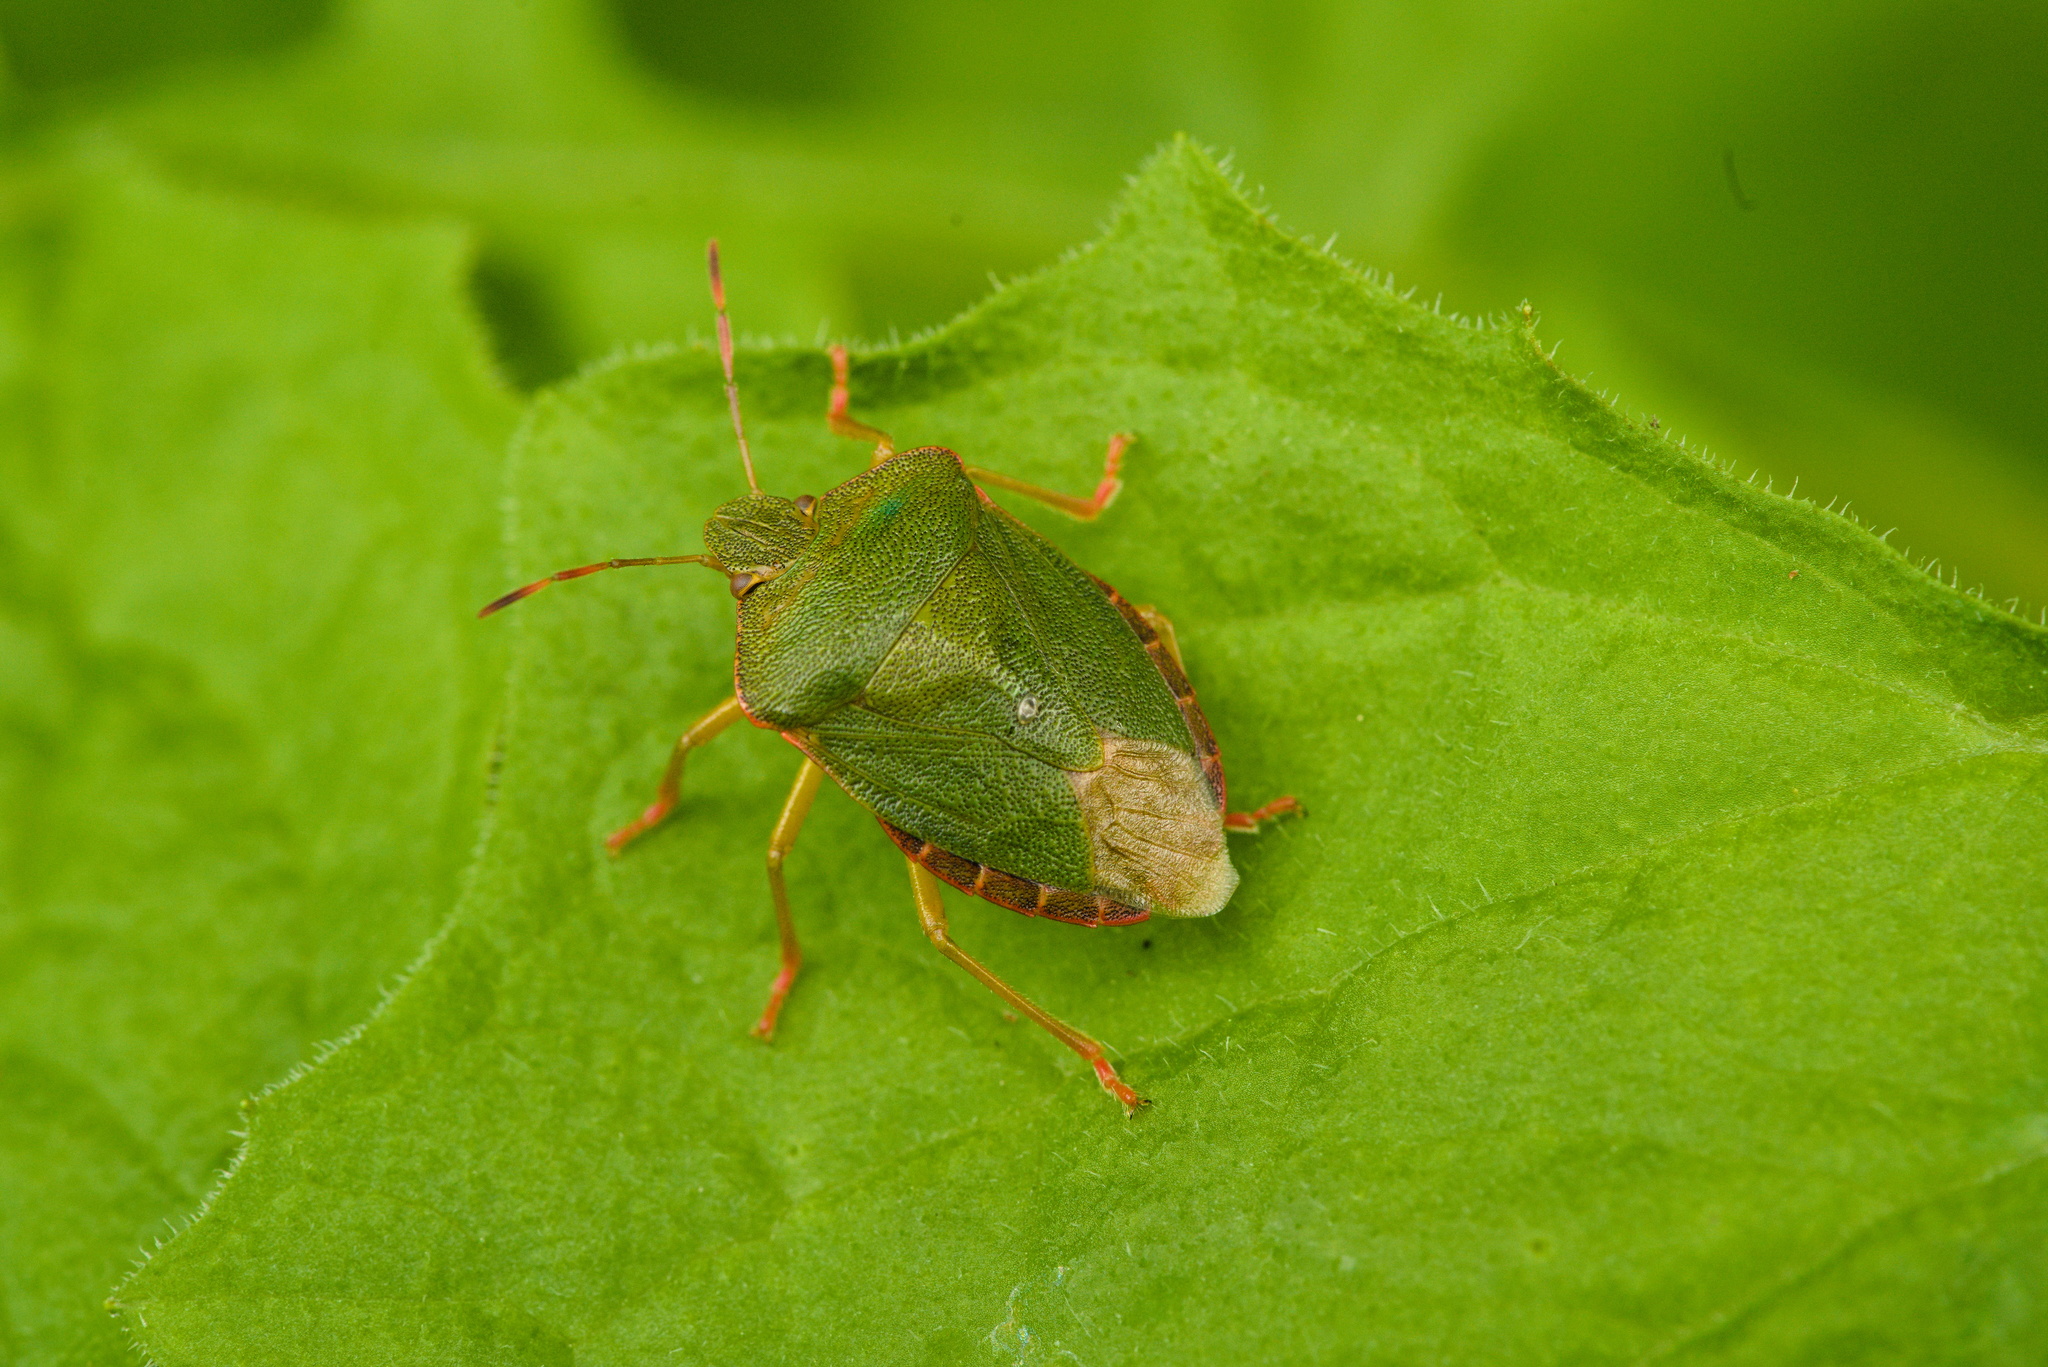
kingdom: Animalia
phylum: Arthropoda
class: Insecta
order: Hemiptera
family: Pentatomidae
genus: Palomena
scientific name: Palomena prasina
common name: Green shieldbug
